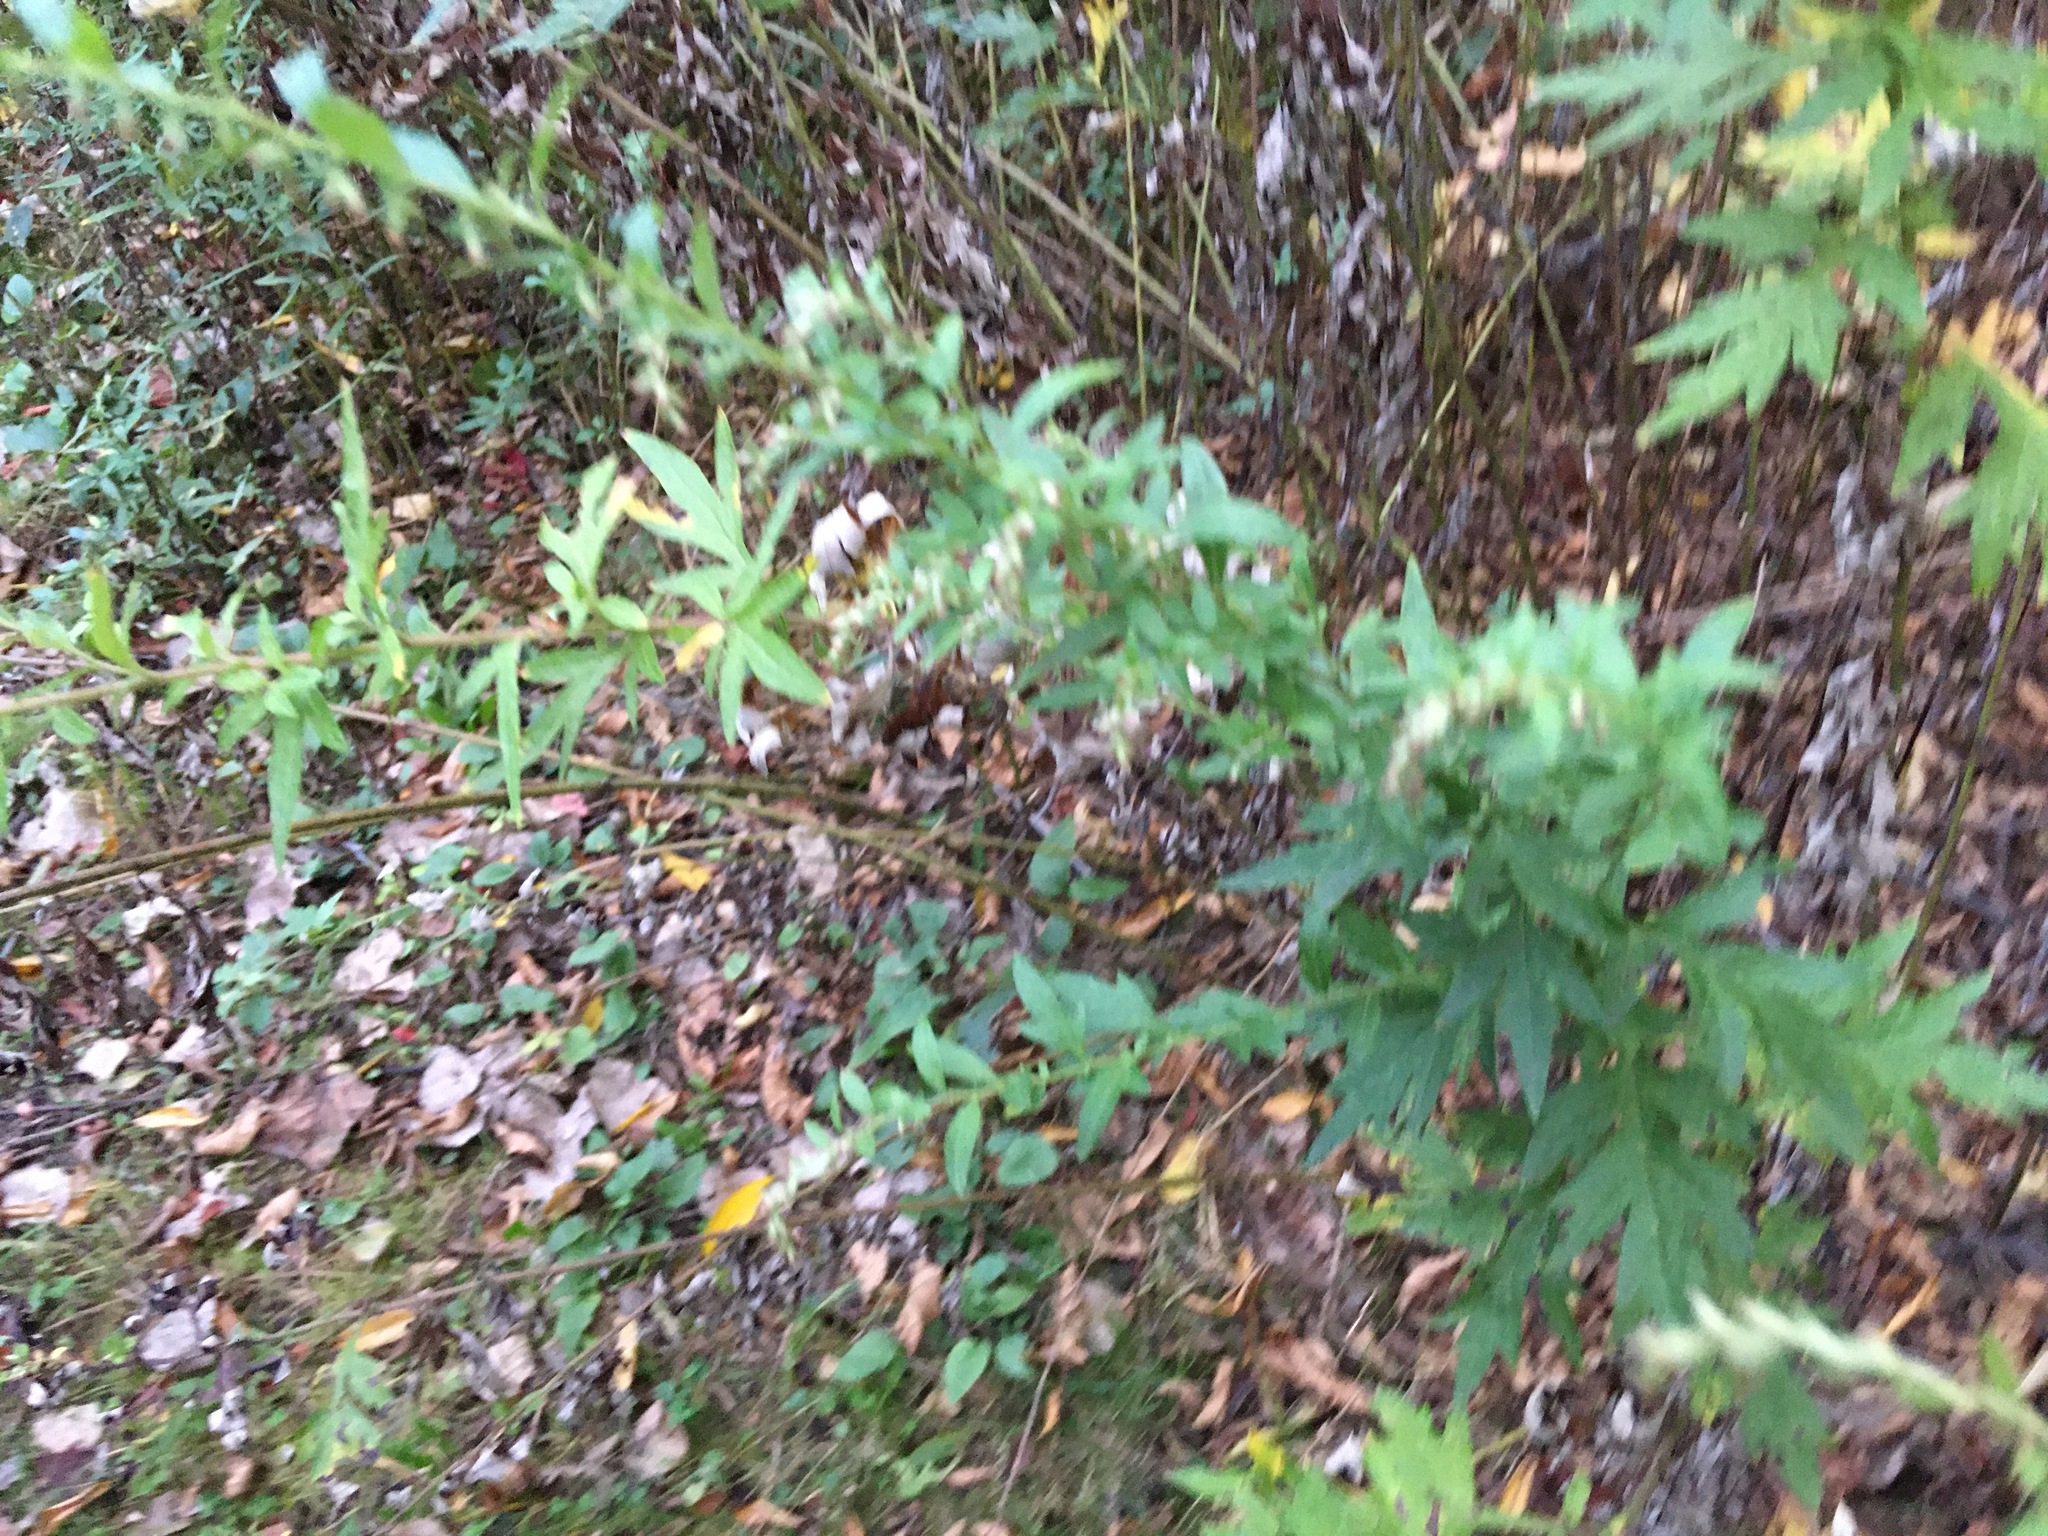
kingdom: Plantae
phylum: Tracheophyta
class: Magnoliopsida
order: Asterales
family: Asteraceae
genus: Artemisia
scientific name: Artemisia vulgaris
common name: Mugwort
